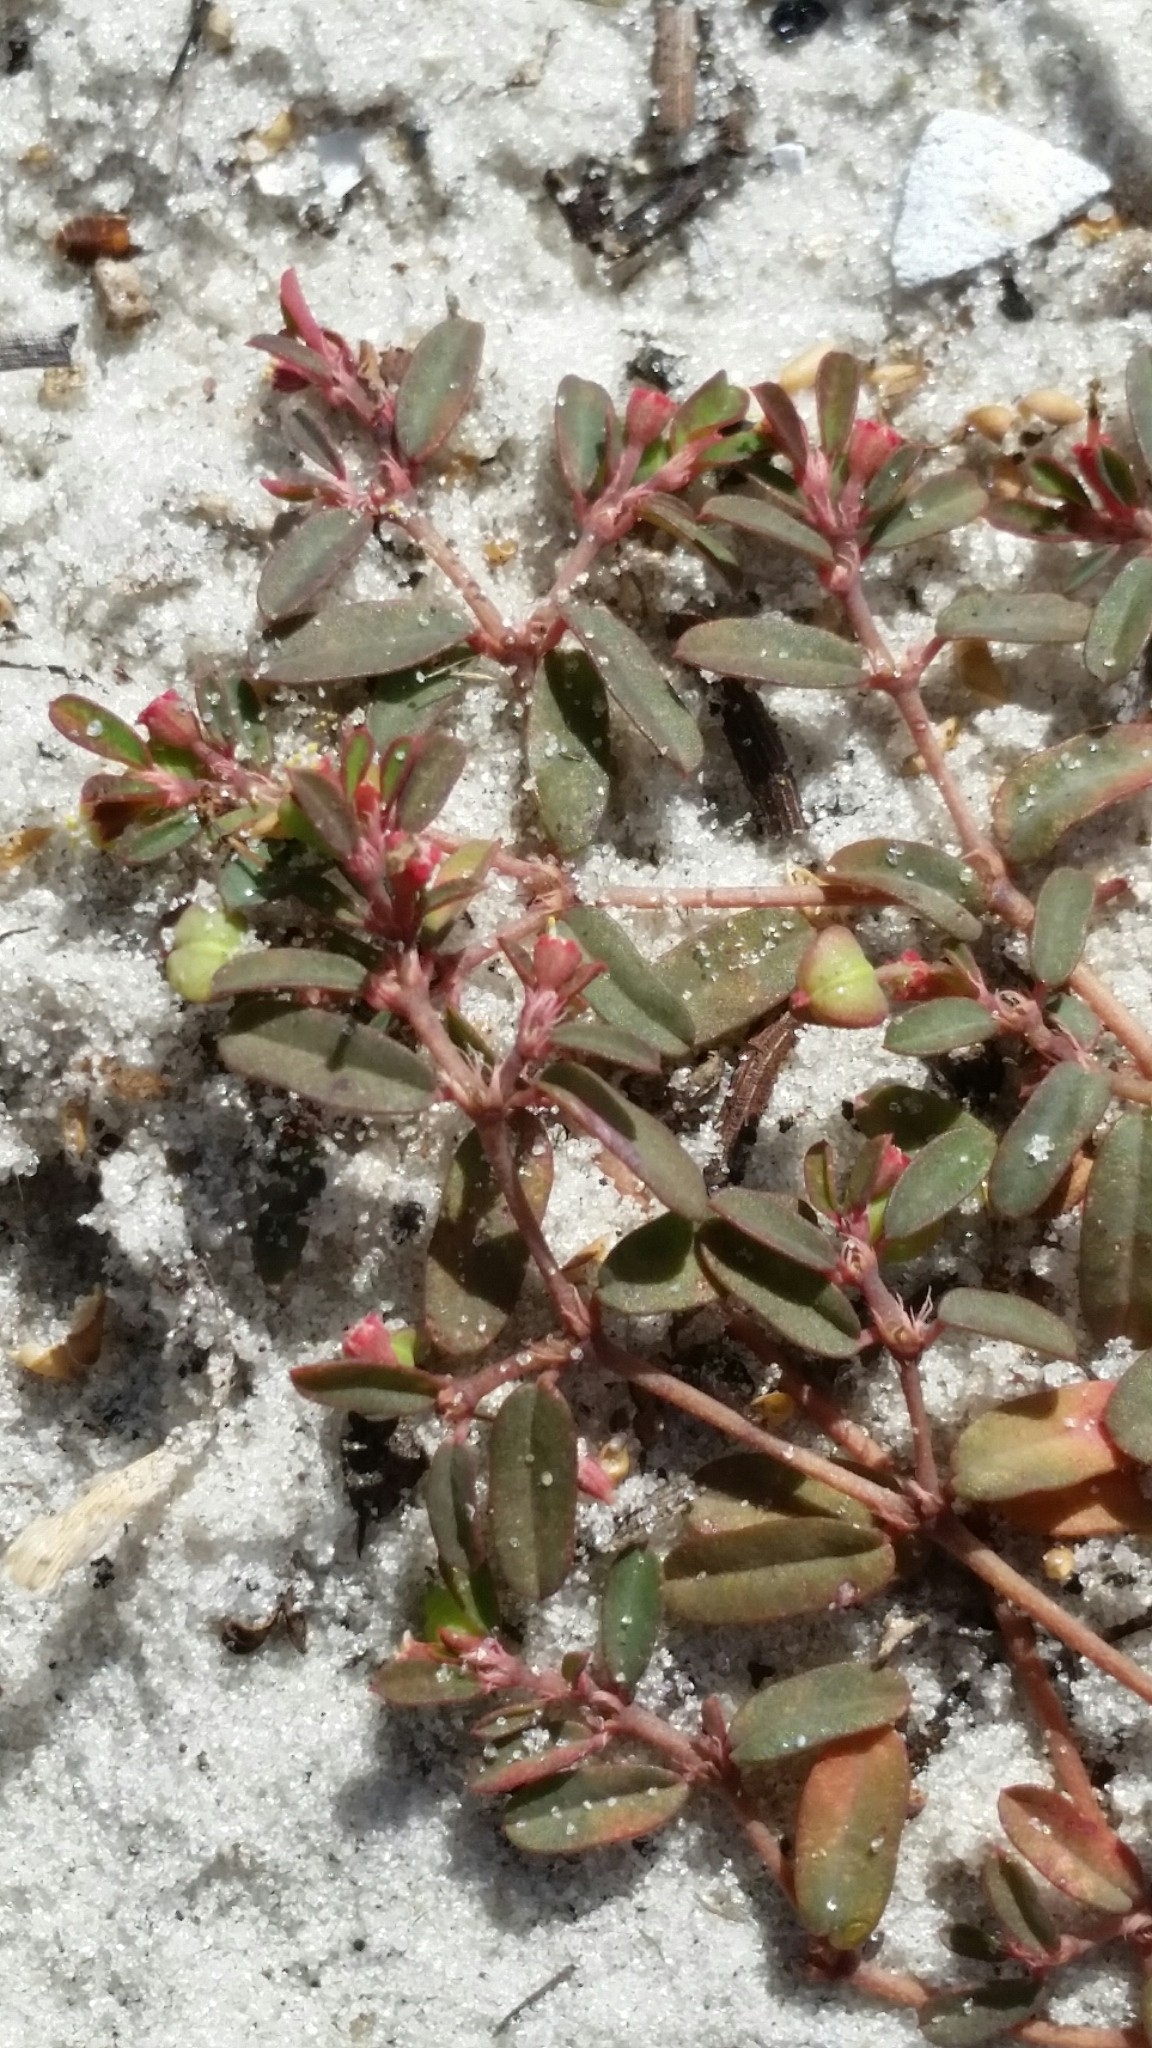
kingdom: Plantae
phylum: Tracheophyta
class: Magnoliopsida
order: Malpighiales
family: Euphorbiaceae
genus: Euphorbia
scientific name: Euphorbia cumulicola
